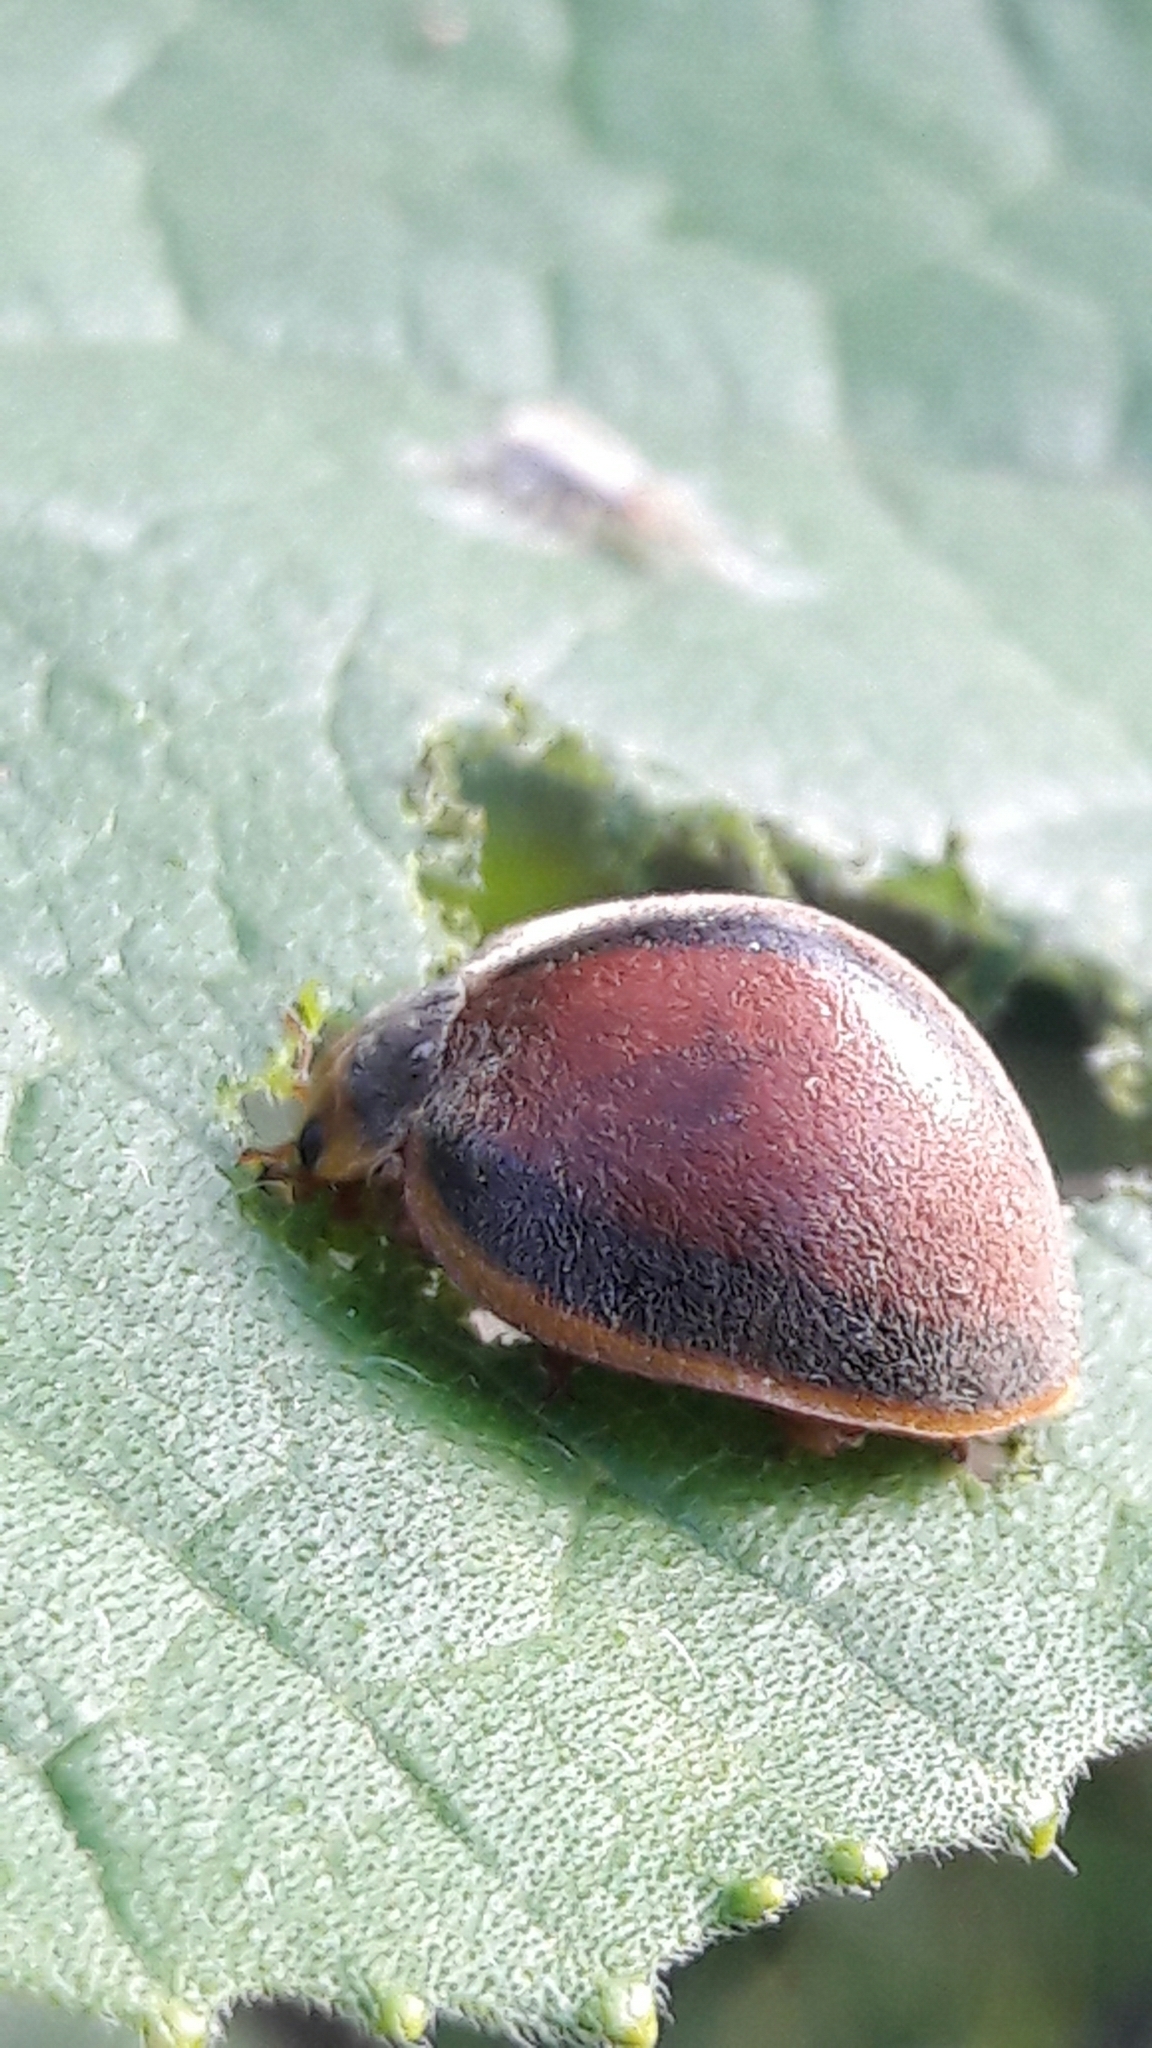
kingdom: Animalia
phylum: Arthropoda
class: Insecta
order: Coleoptera
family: Coccinellidae
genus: Epilachna
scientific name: Epilachna cacica
